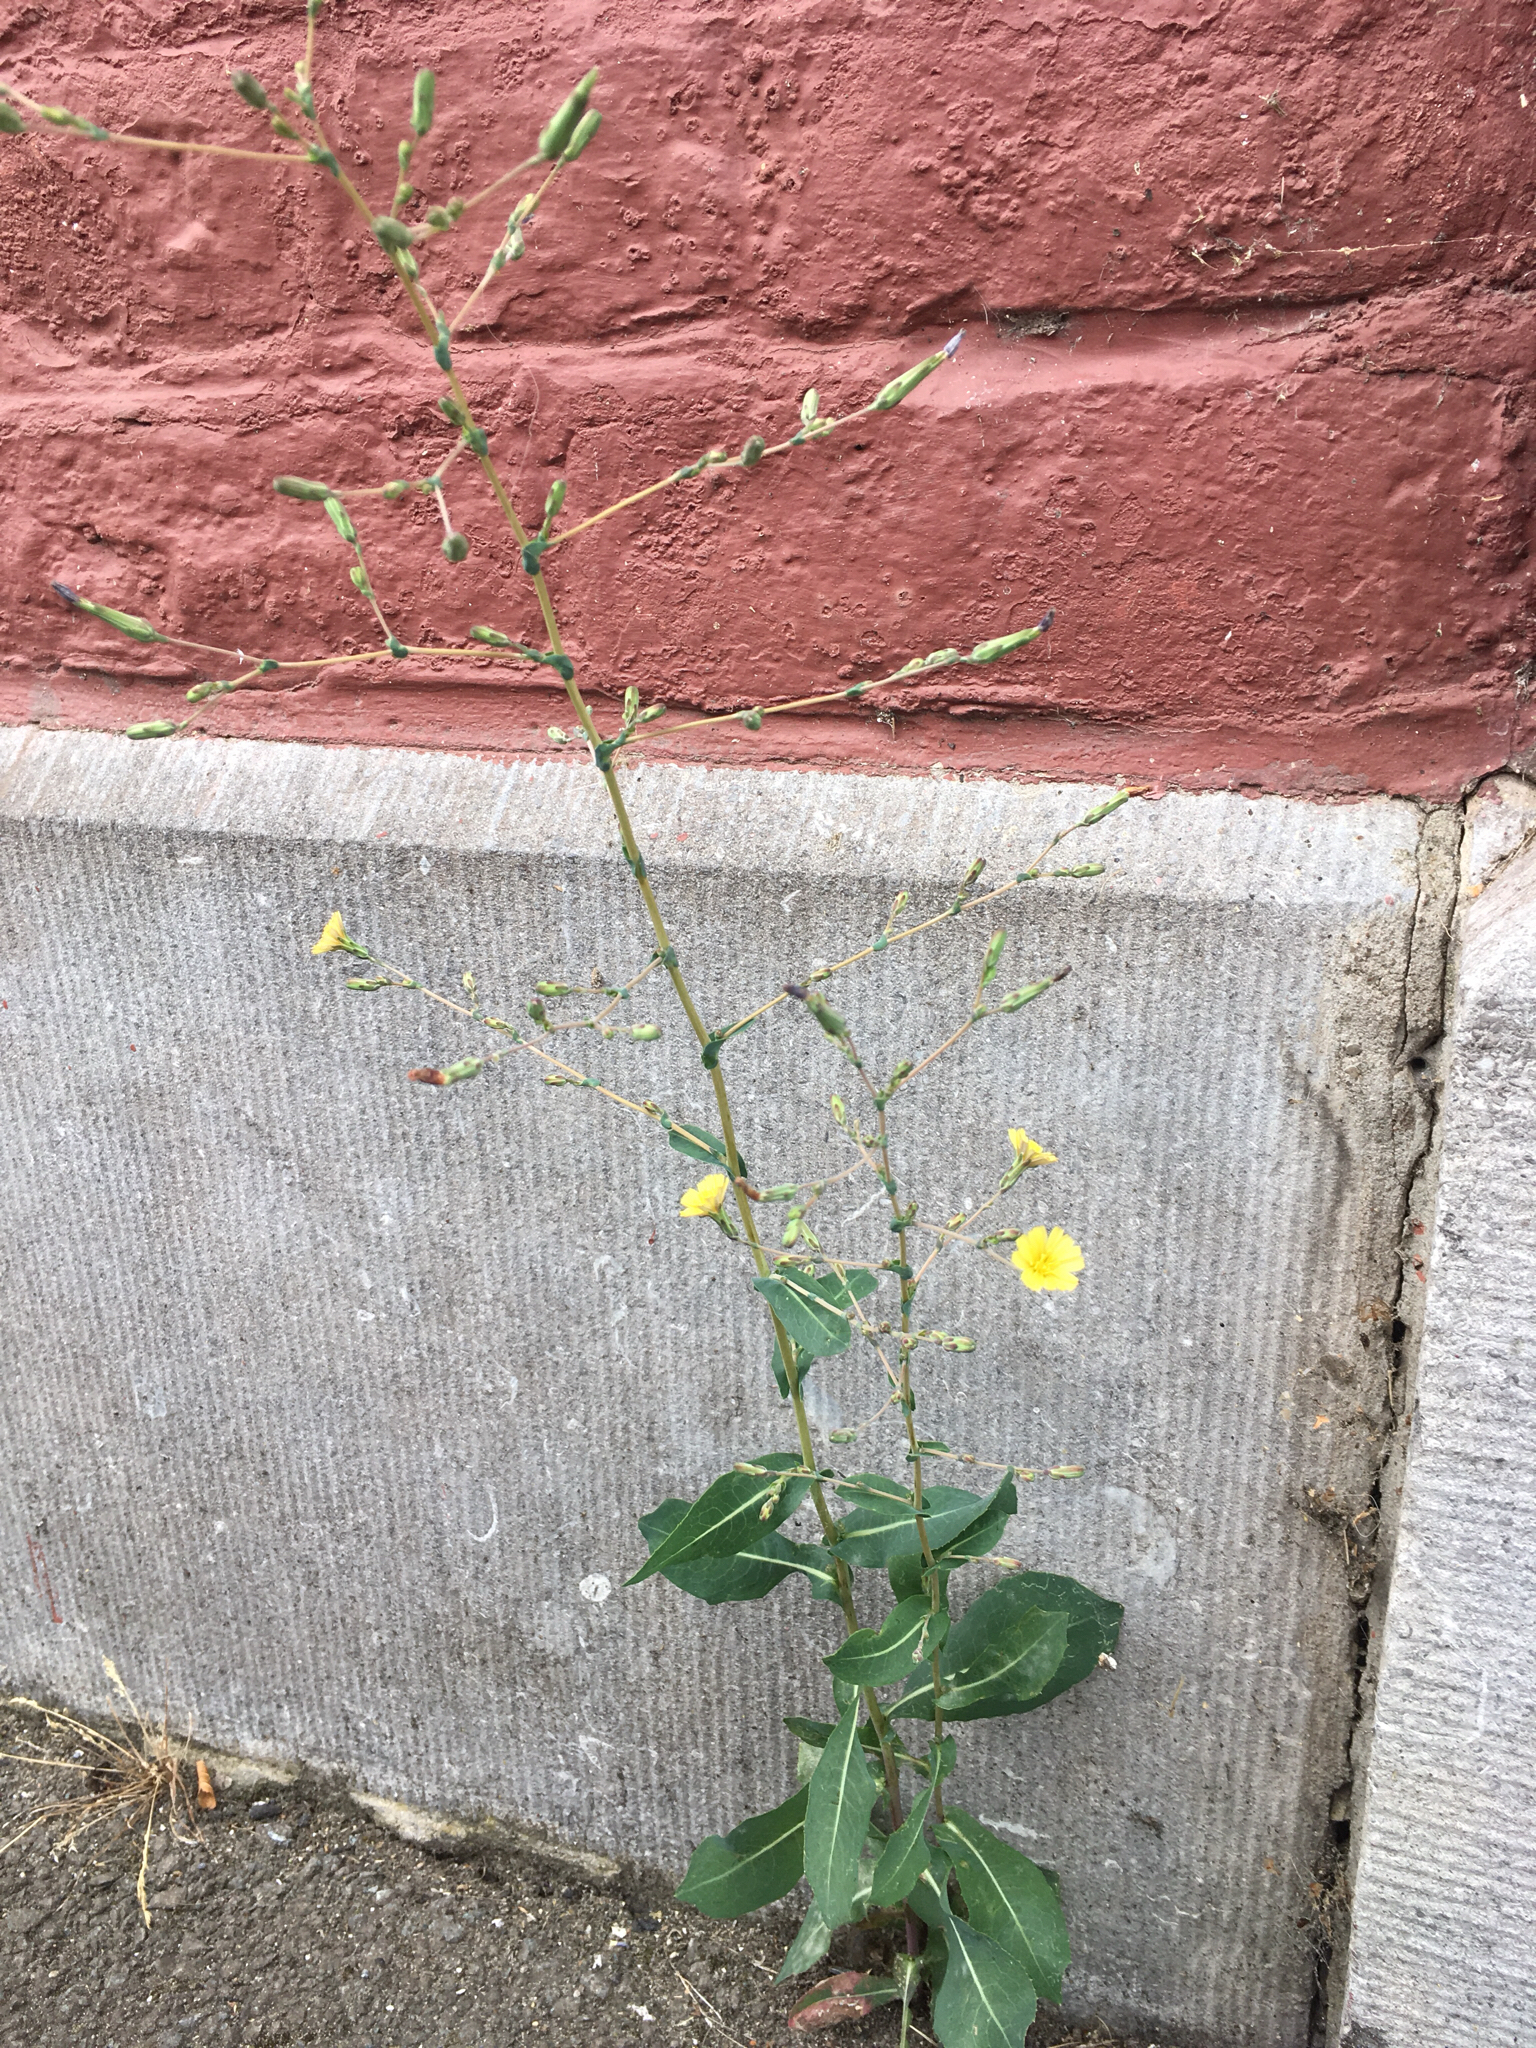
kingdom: Plantae
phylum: Tracheophyta
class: Magnoliopsida
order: Asterales
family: Asteraceae
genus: Lactuca
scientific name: Lactuca serriola
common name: Prickly lettuce
